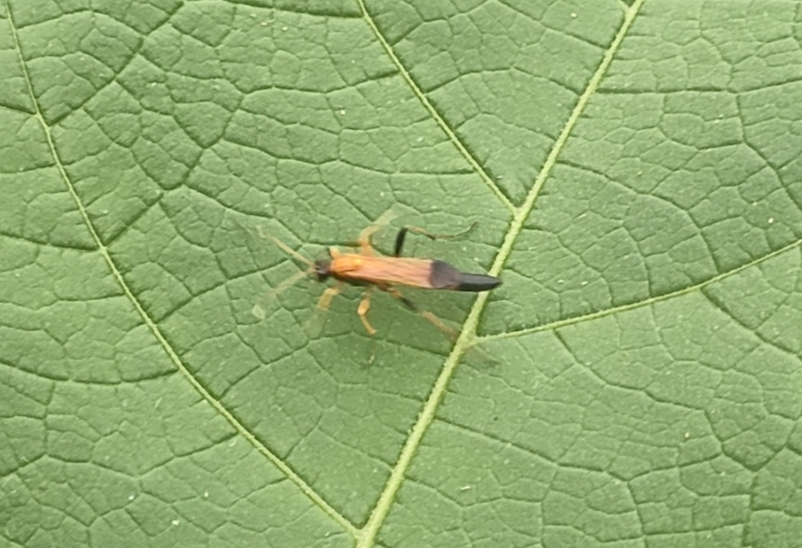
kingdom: Animalia
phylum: Arthropoda
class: Insecta
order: Hymenoptera
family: Ichneumonidae
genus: Ctenochares
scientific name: Ctenochares bicolorus
